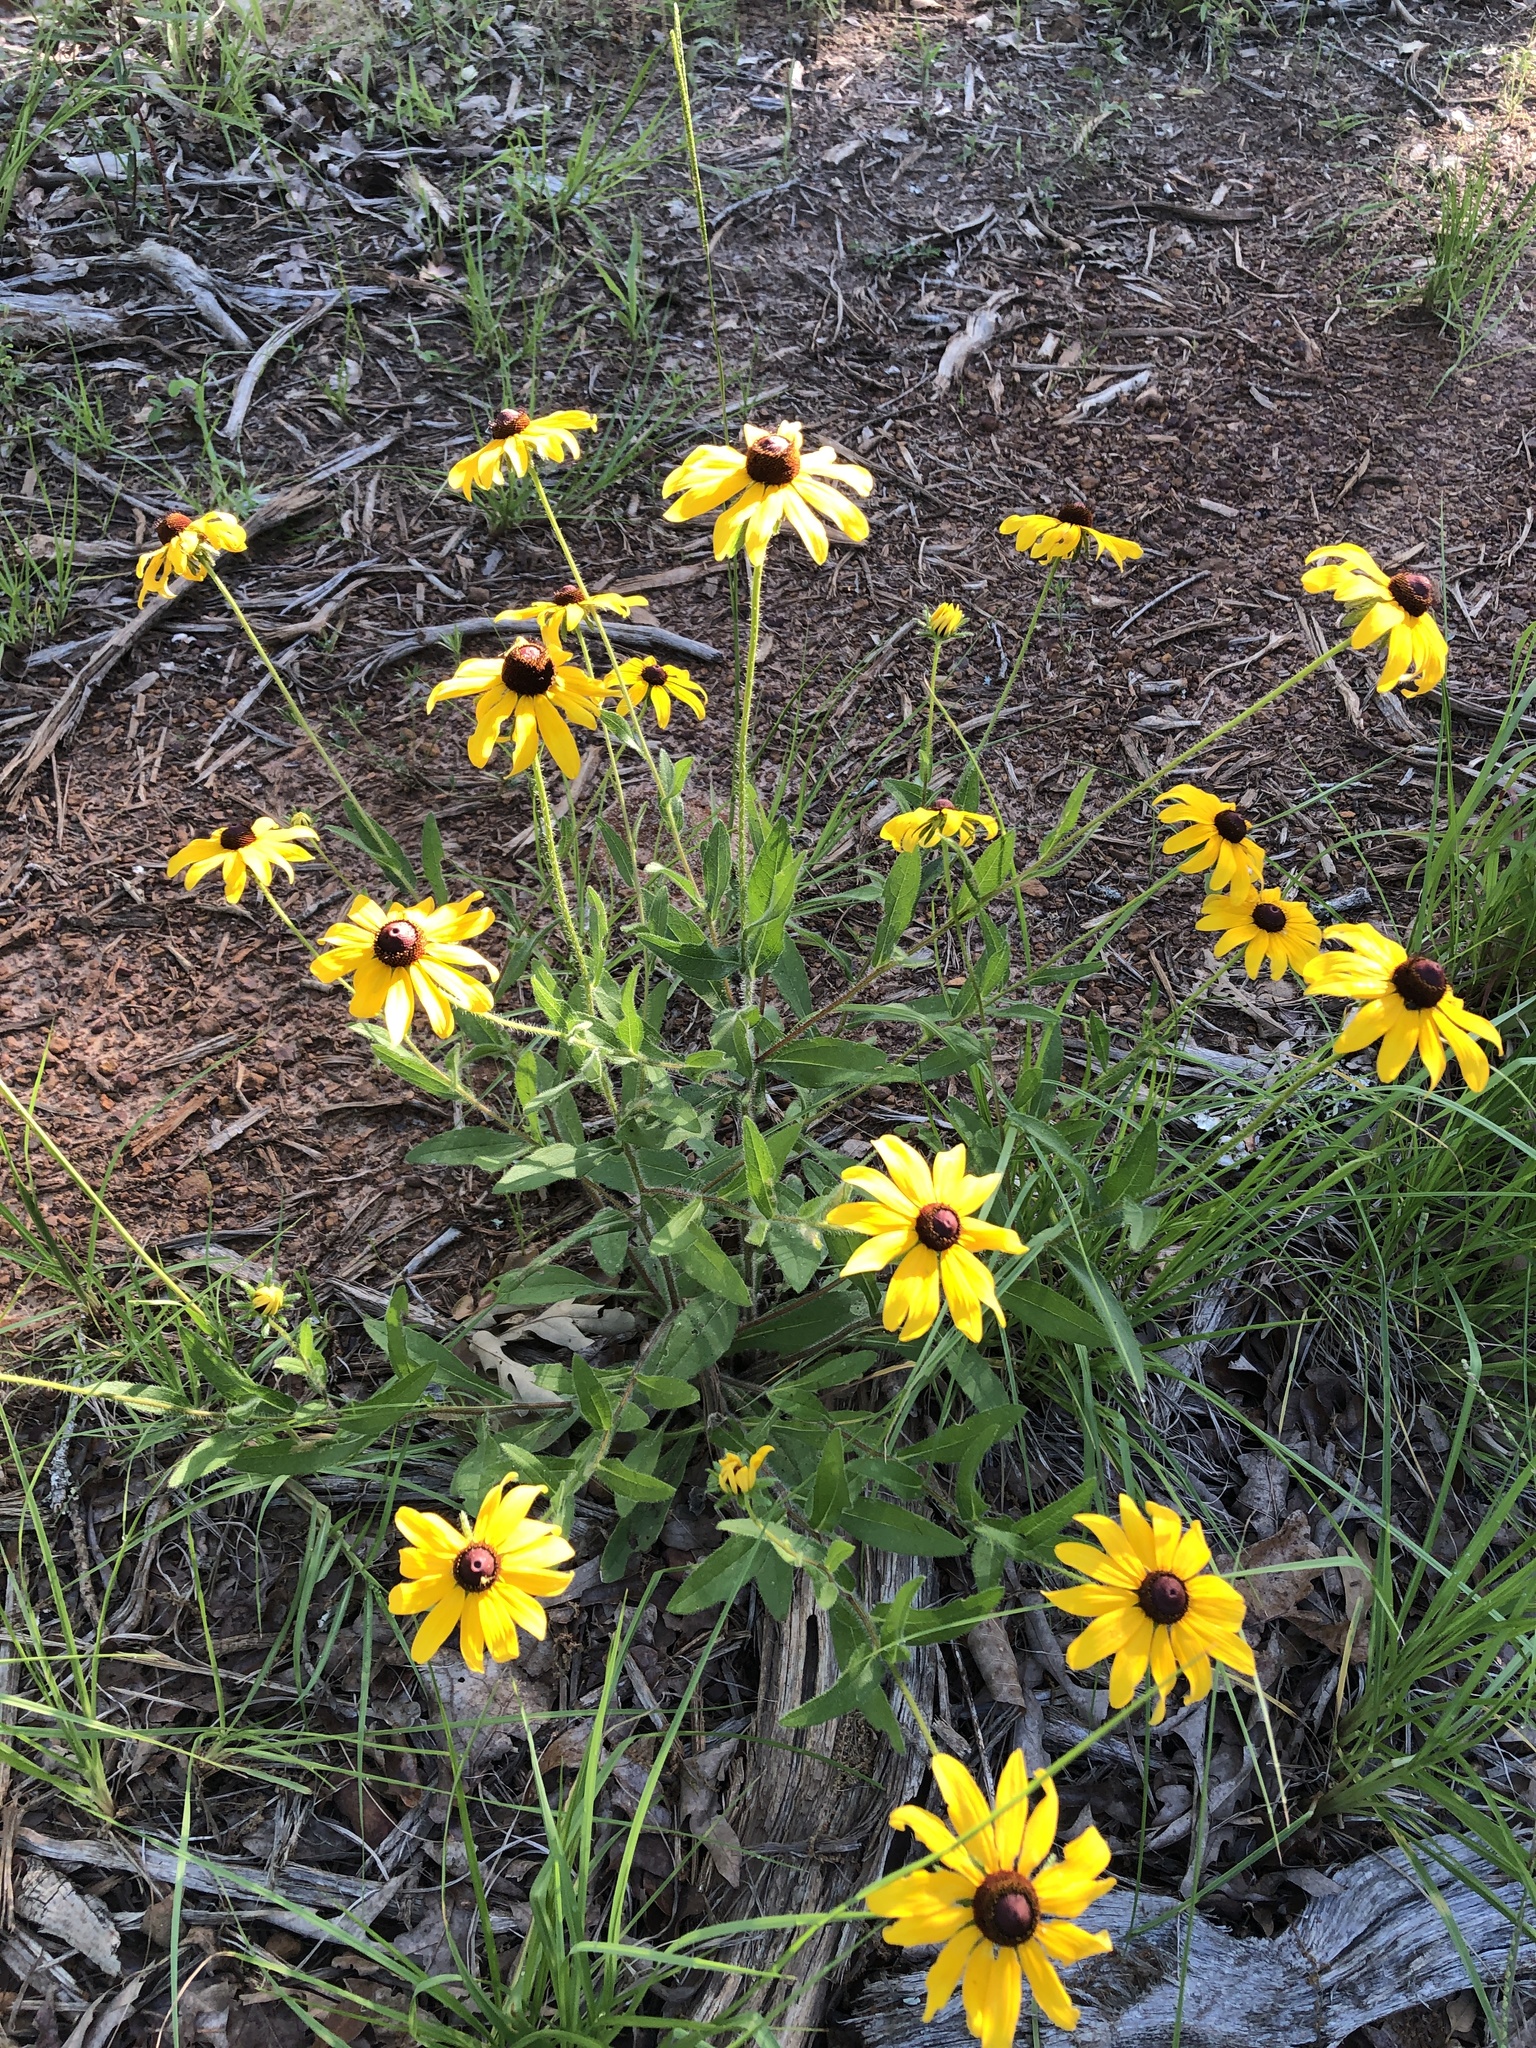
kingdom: Plantae
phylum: Tracheophyta
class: Magnoliopsida
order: Asterales
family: Asteraceae
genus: Rudbeckia
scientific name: Rudbeckia hirta
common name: Black-eyed-susan
